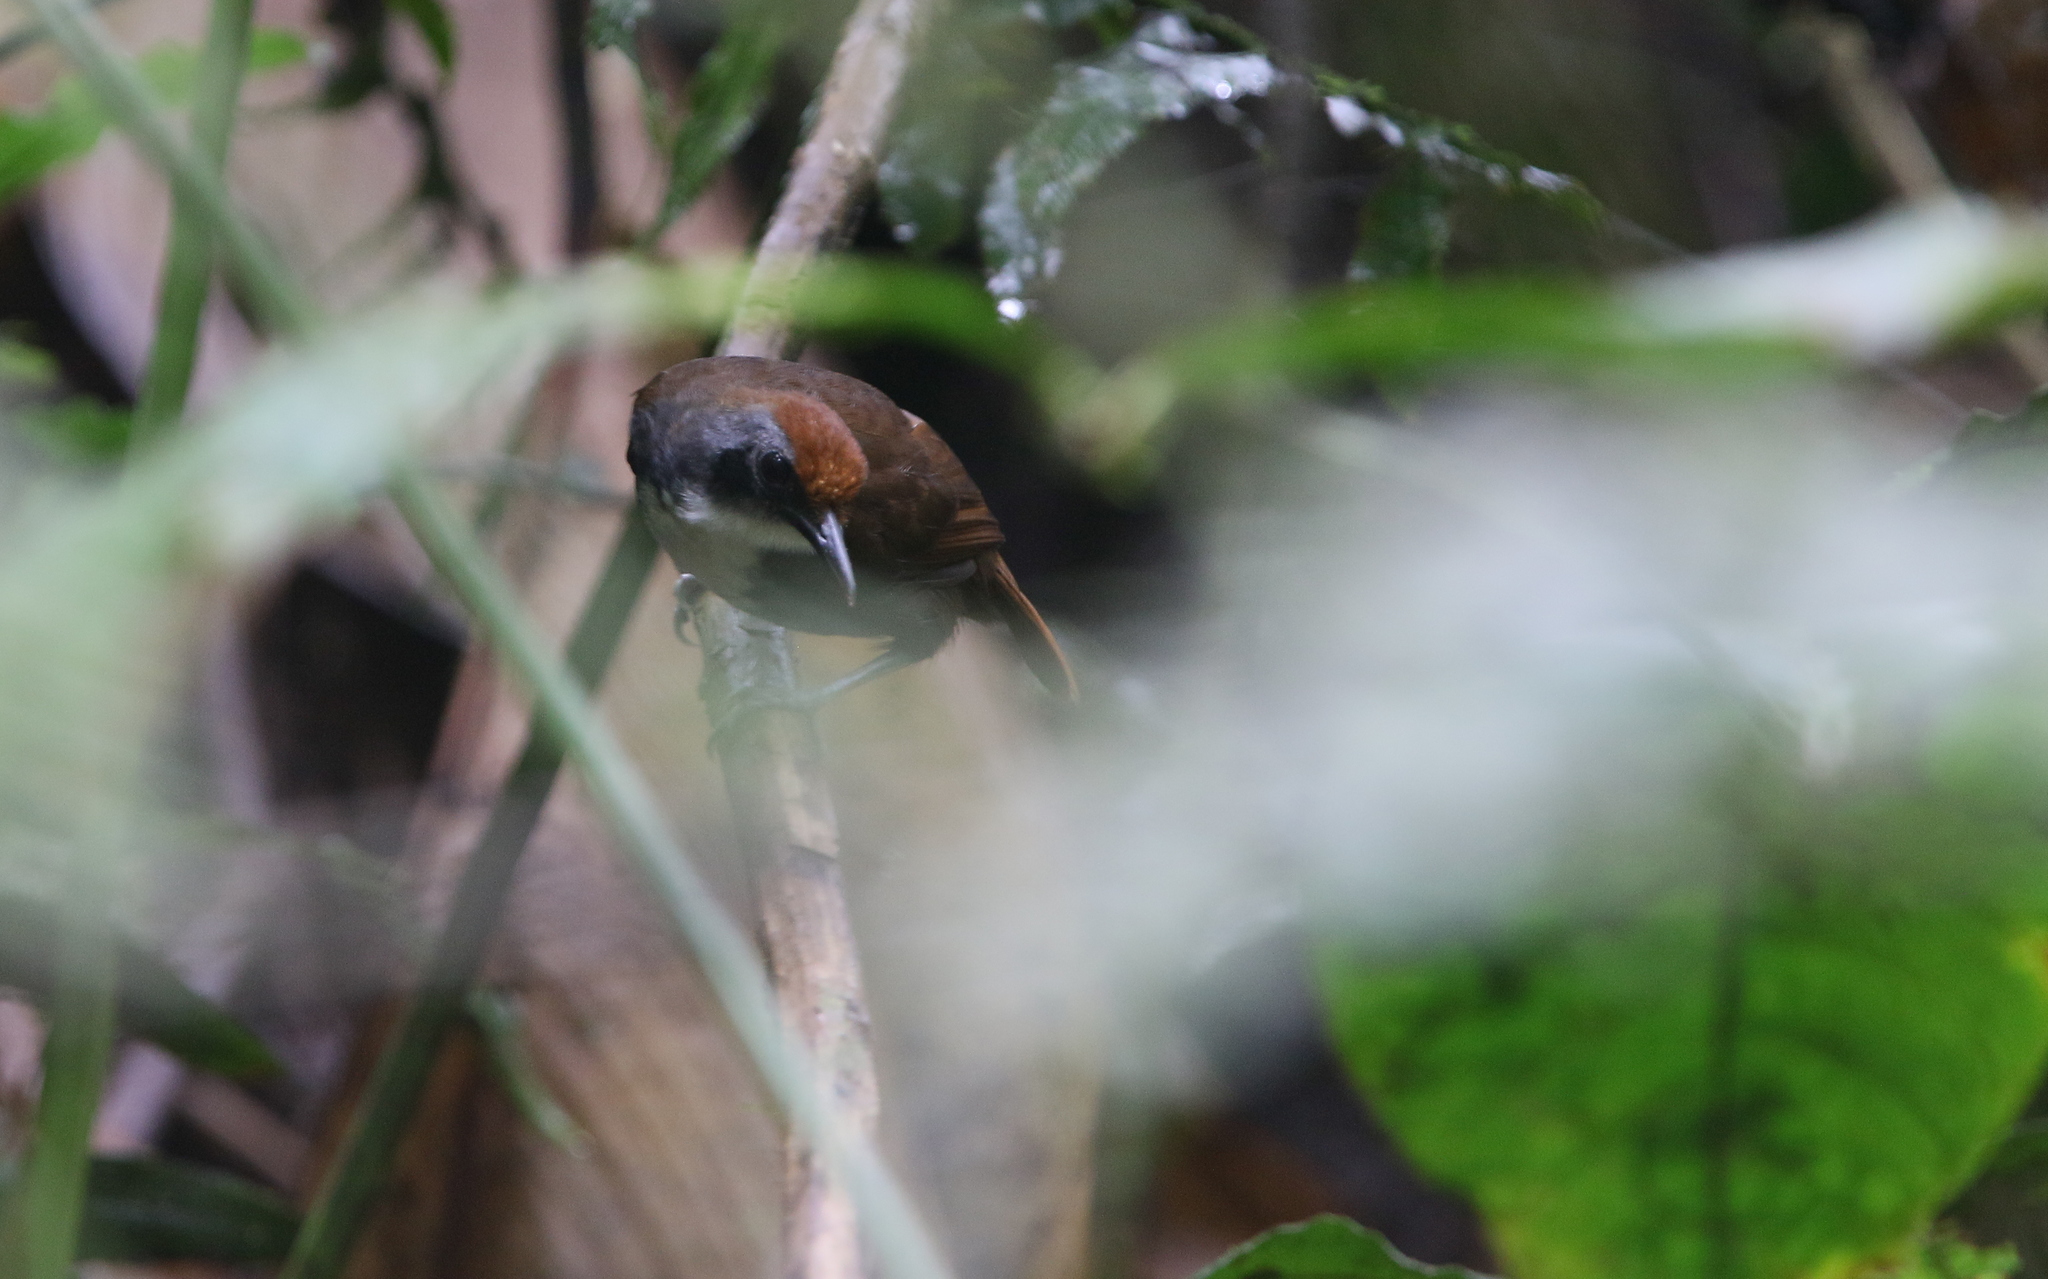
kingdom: Animalia
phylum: Chordata
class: Aves
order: Passeriformes
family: Thamnophilidae
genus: Gymnopithys
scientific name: Gymnopithys leucaspis
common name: White-cheeked antbird
